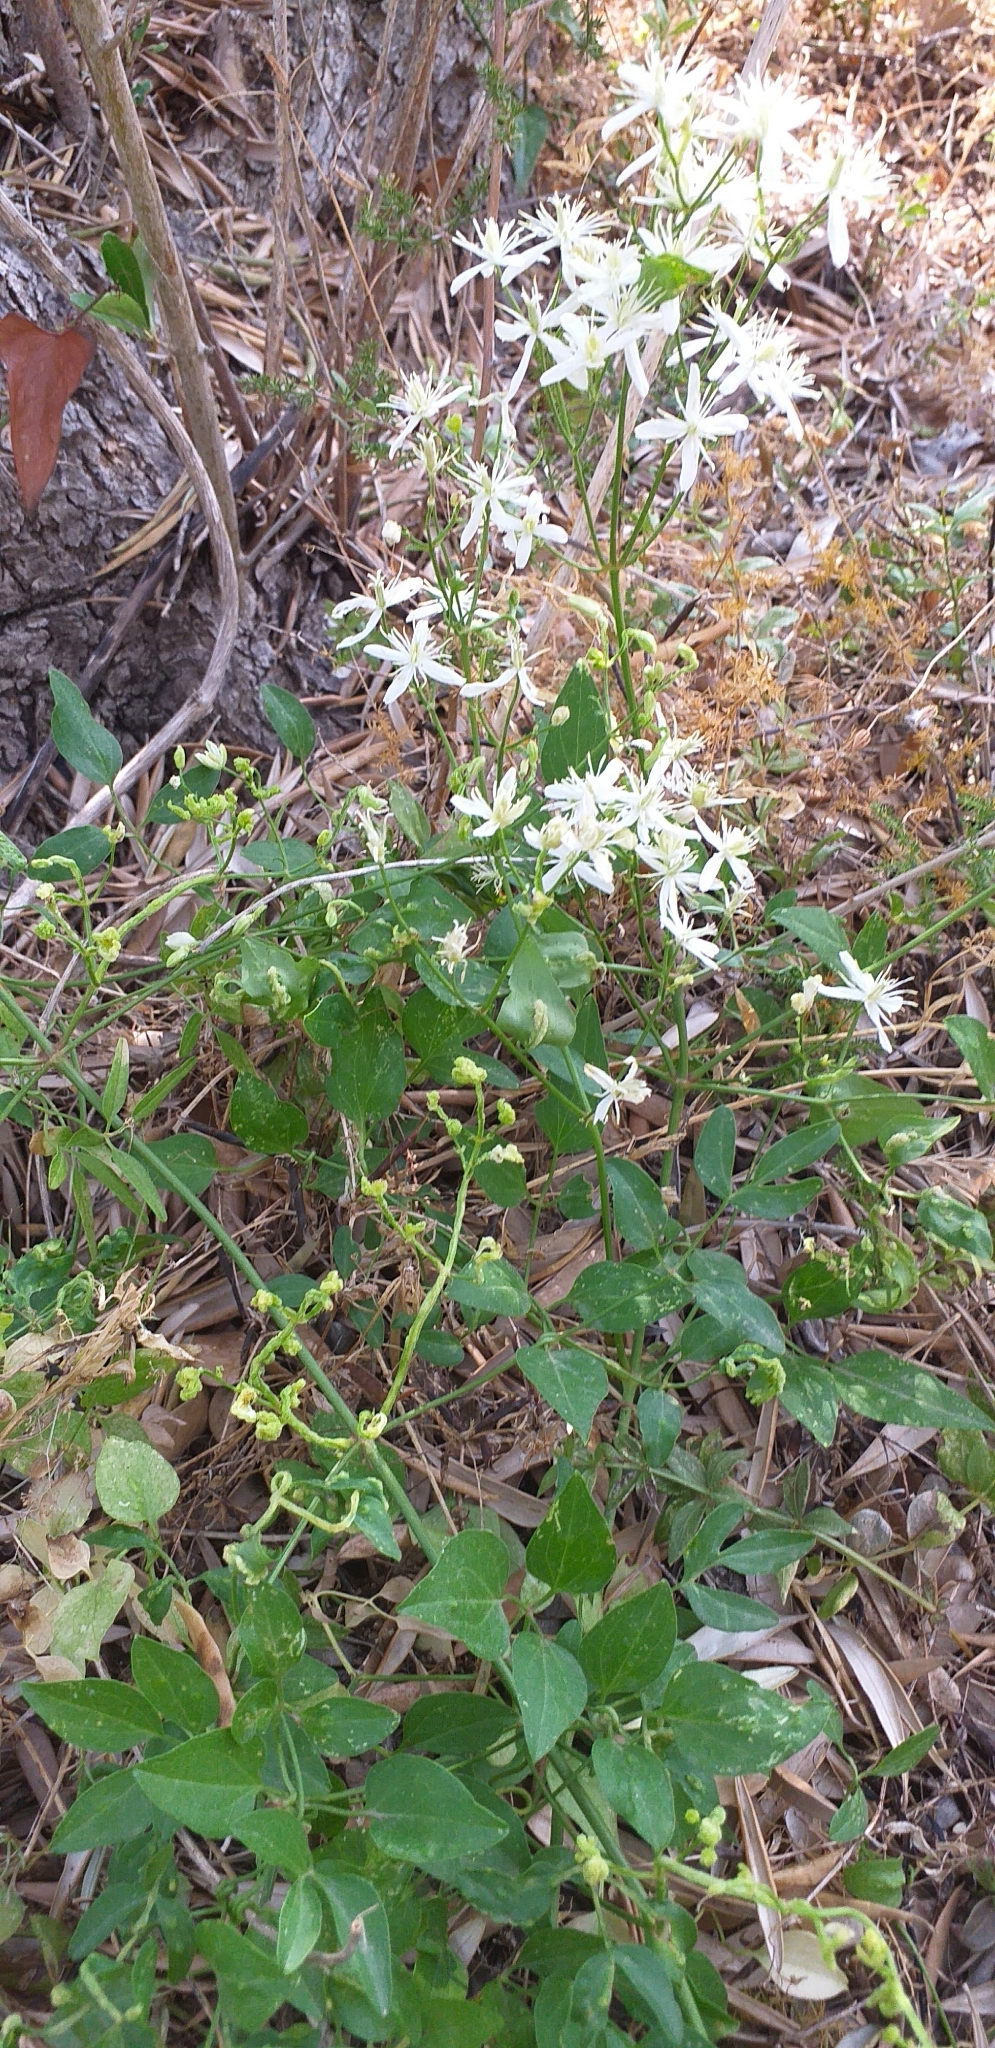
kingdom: Plantae
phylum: Tracheophyta
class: Magnoliopsida
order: Ranunculales
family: Ranunculaceae
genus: Clematis
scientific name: Clematis flammula
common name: Virgin's-bower
